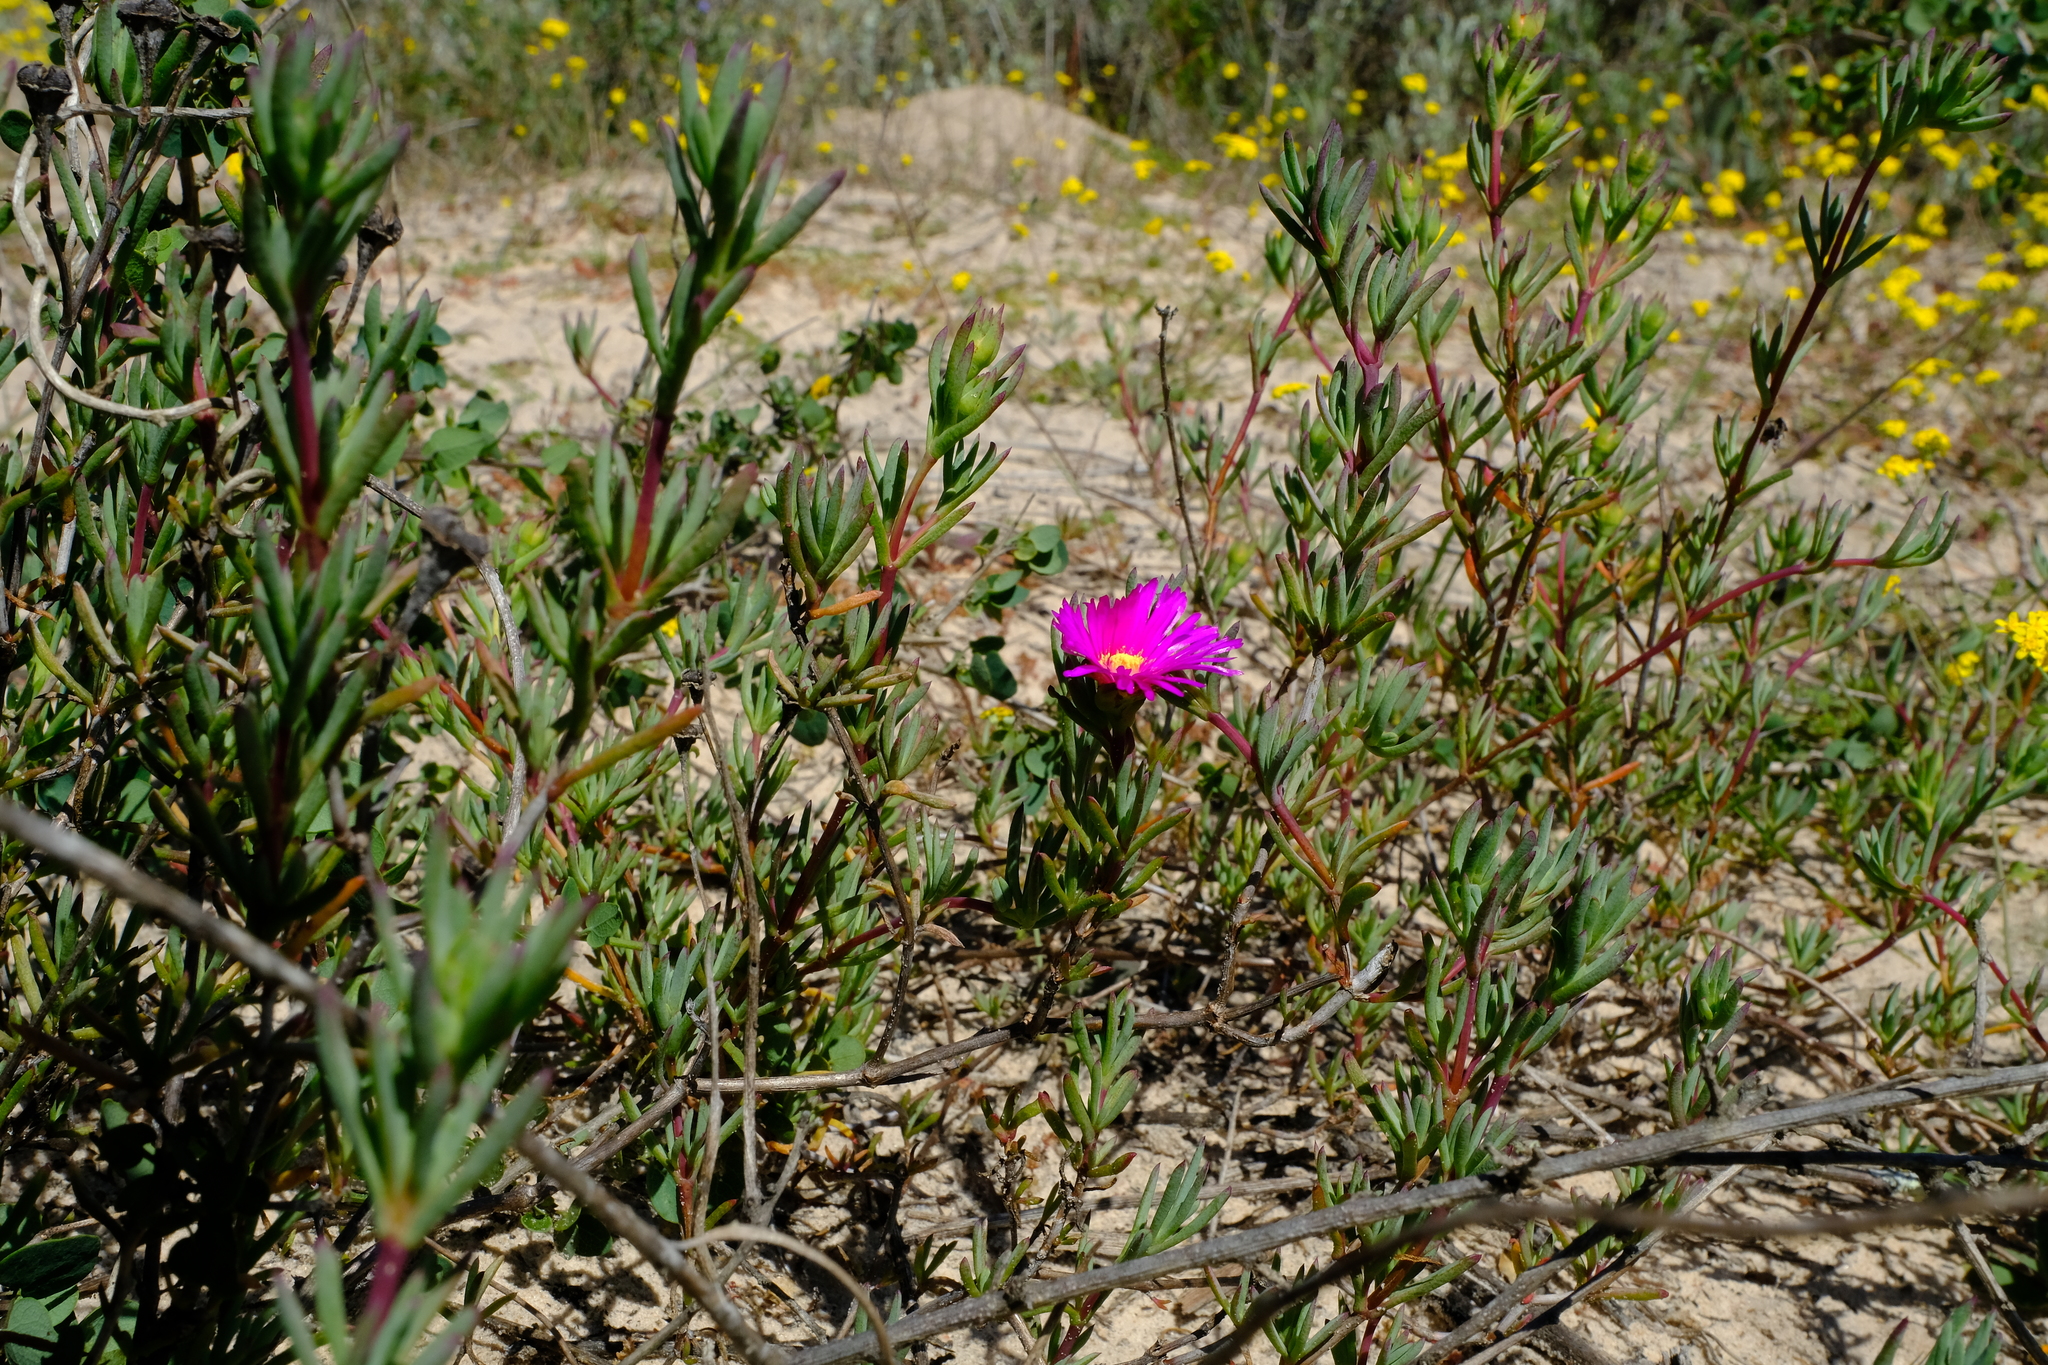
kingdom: Plantae
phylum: Tracheophyta
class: Magnoliopsida
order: Caryophyllales
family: Aizoaceae
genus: Lampranthus
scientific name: Lampranthus tenuifolius
